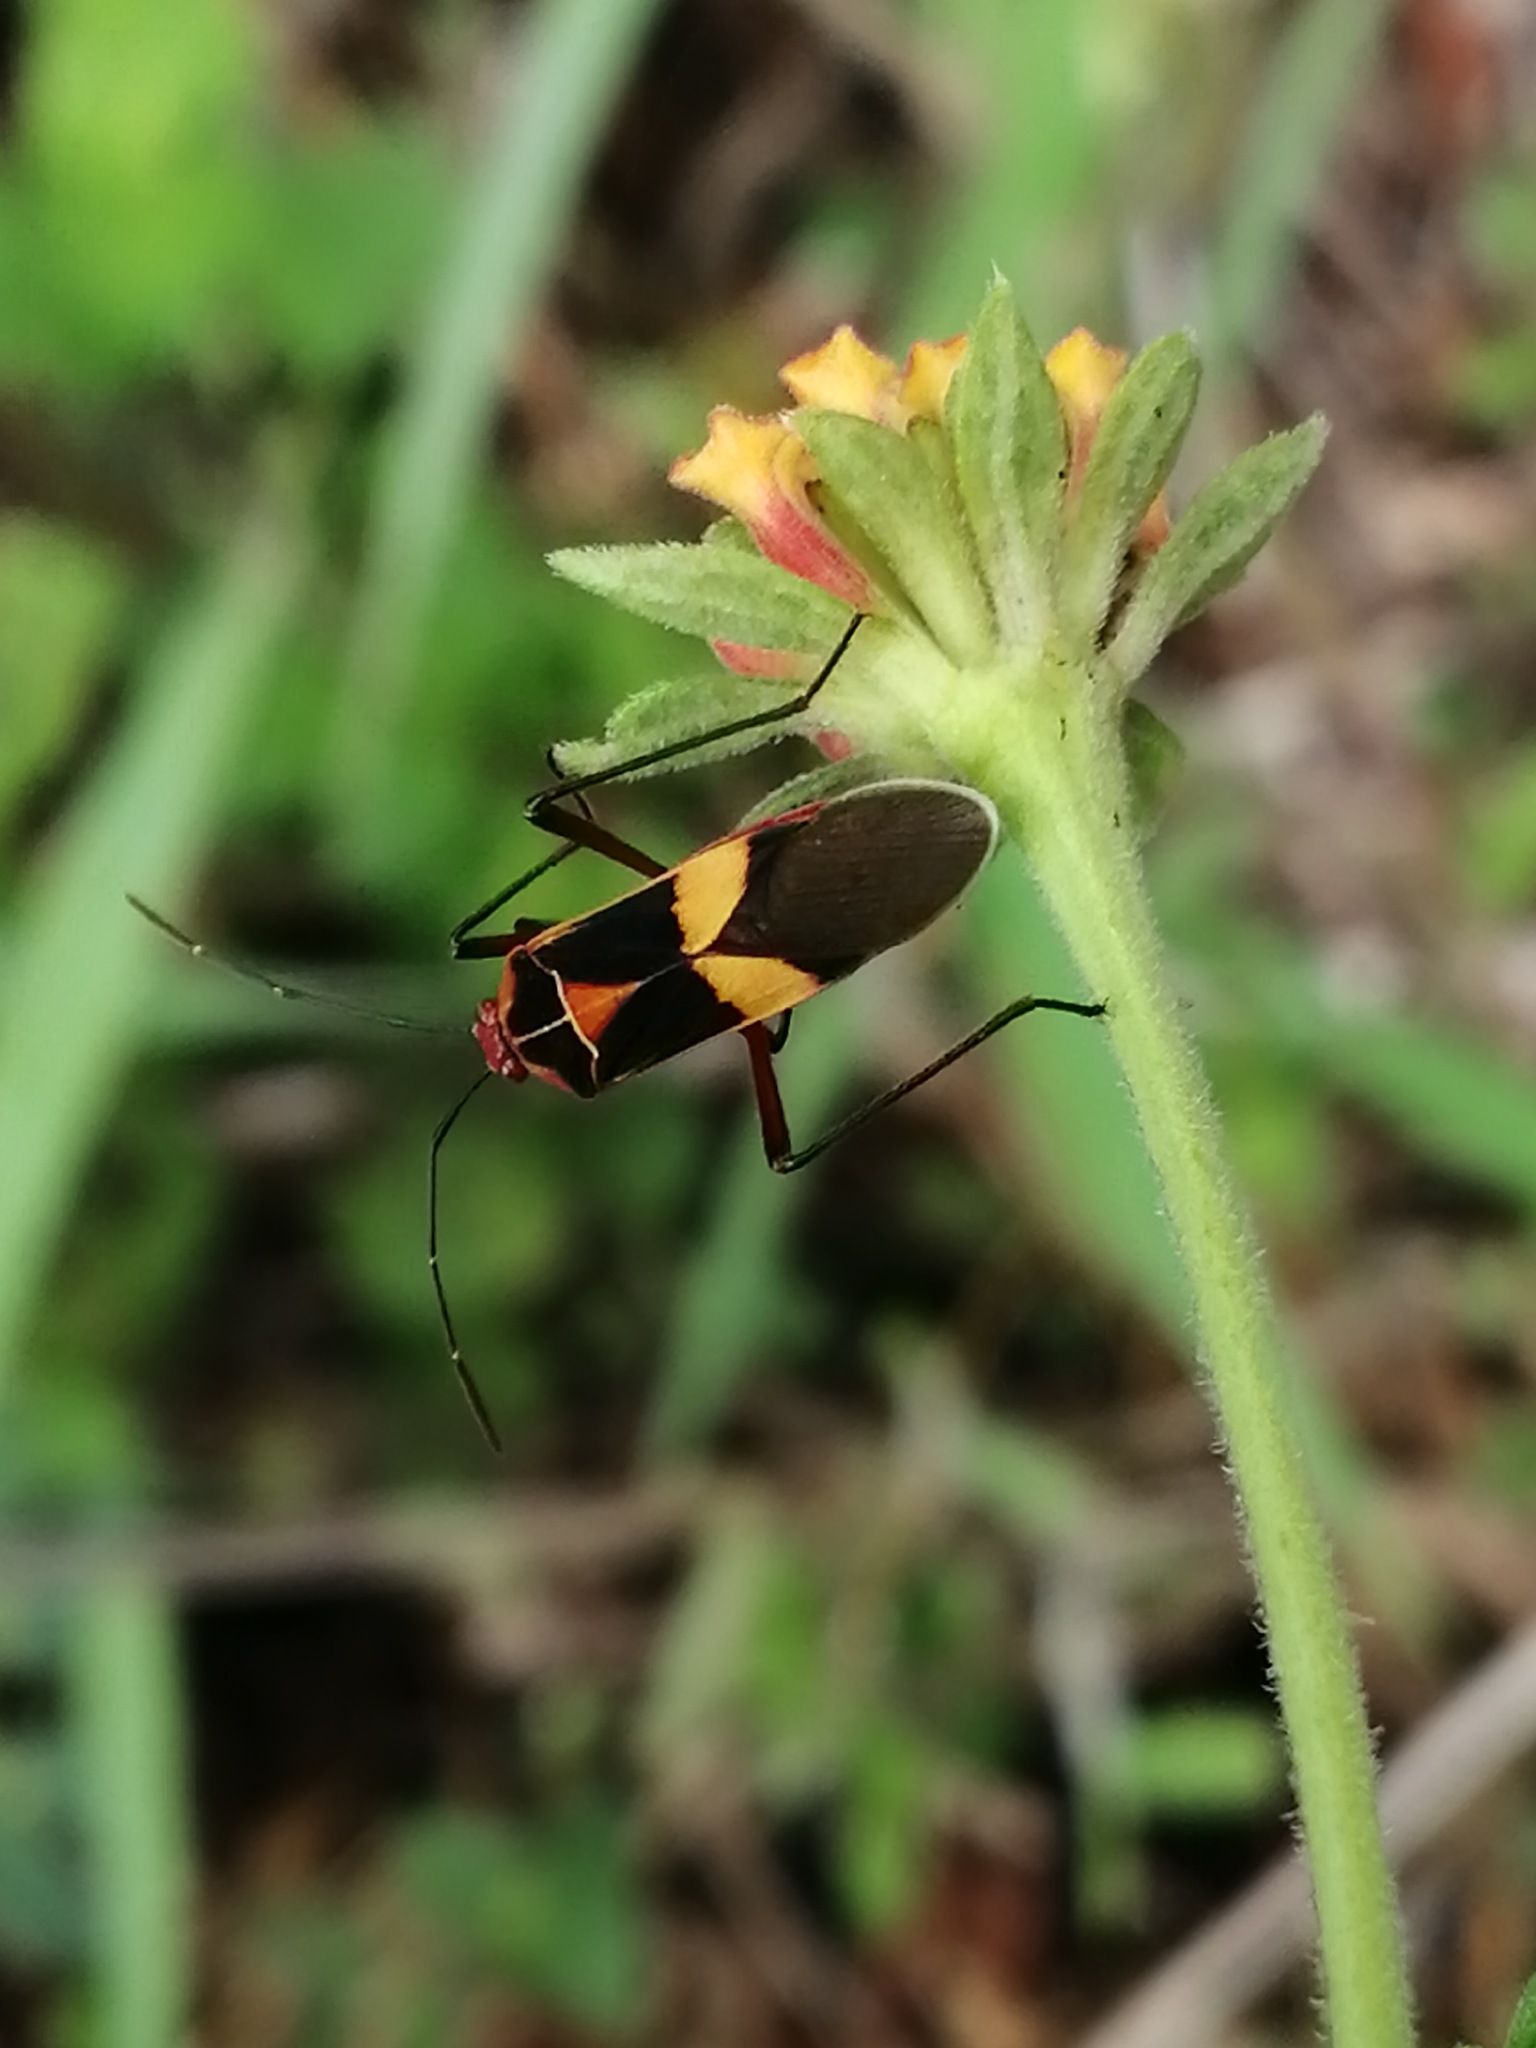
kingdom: Animalia
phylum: Arthropoda
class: Insecta
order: Hemiptera
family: Coreidae
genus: Hypselonotus
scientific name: Hypselonotus interruptus
